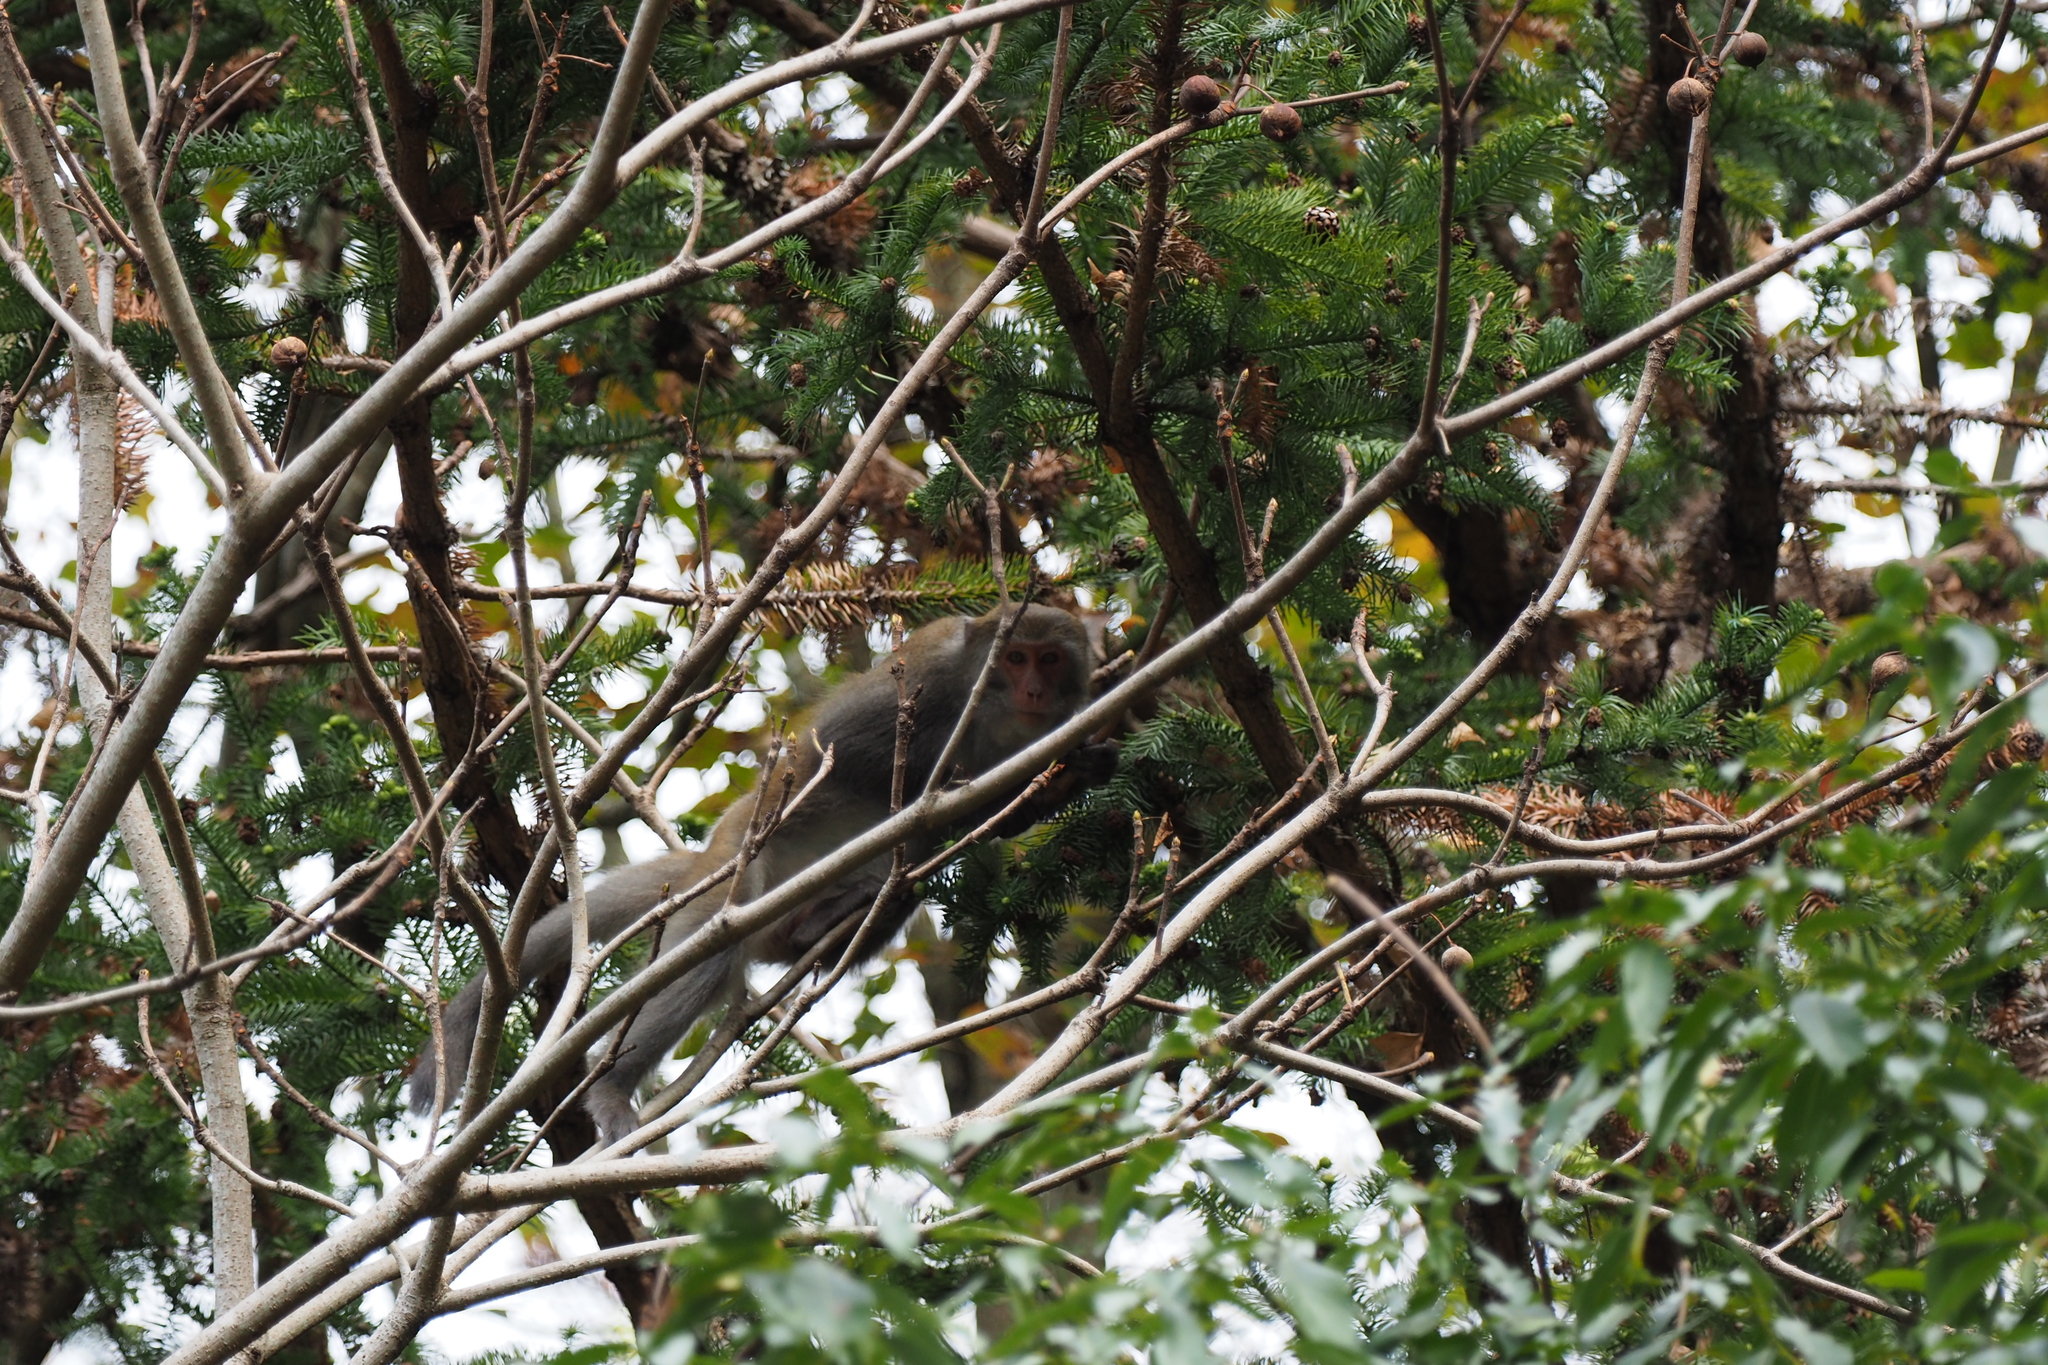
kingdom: Animalia
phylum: Chordata
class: Mammalia
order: Primates
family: Cercopithecidae
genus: Macaca
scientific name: Macaca cyclopis
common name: Formosan rock macaque
